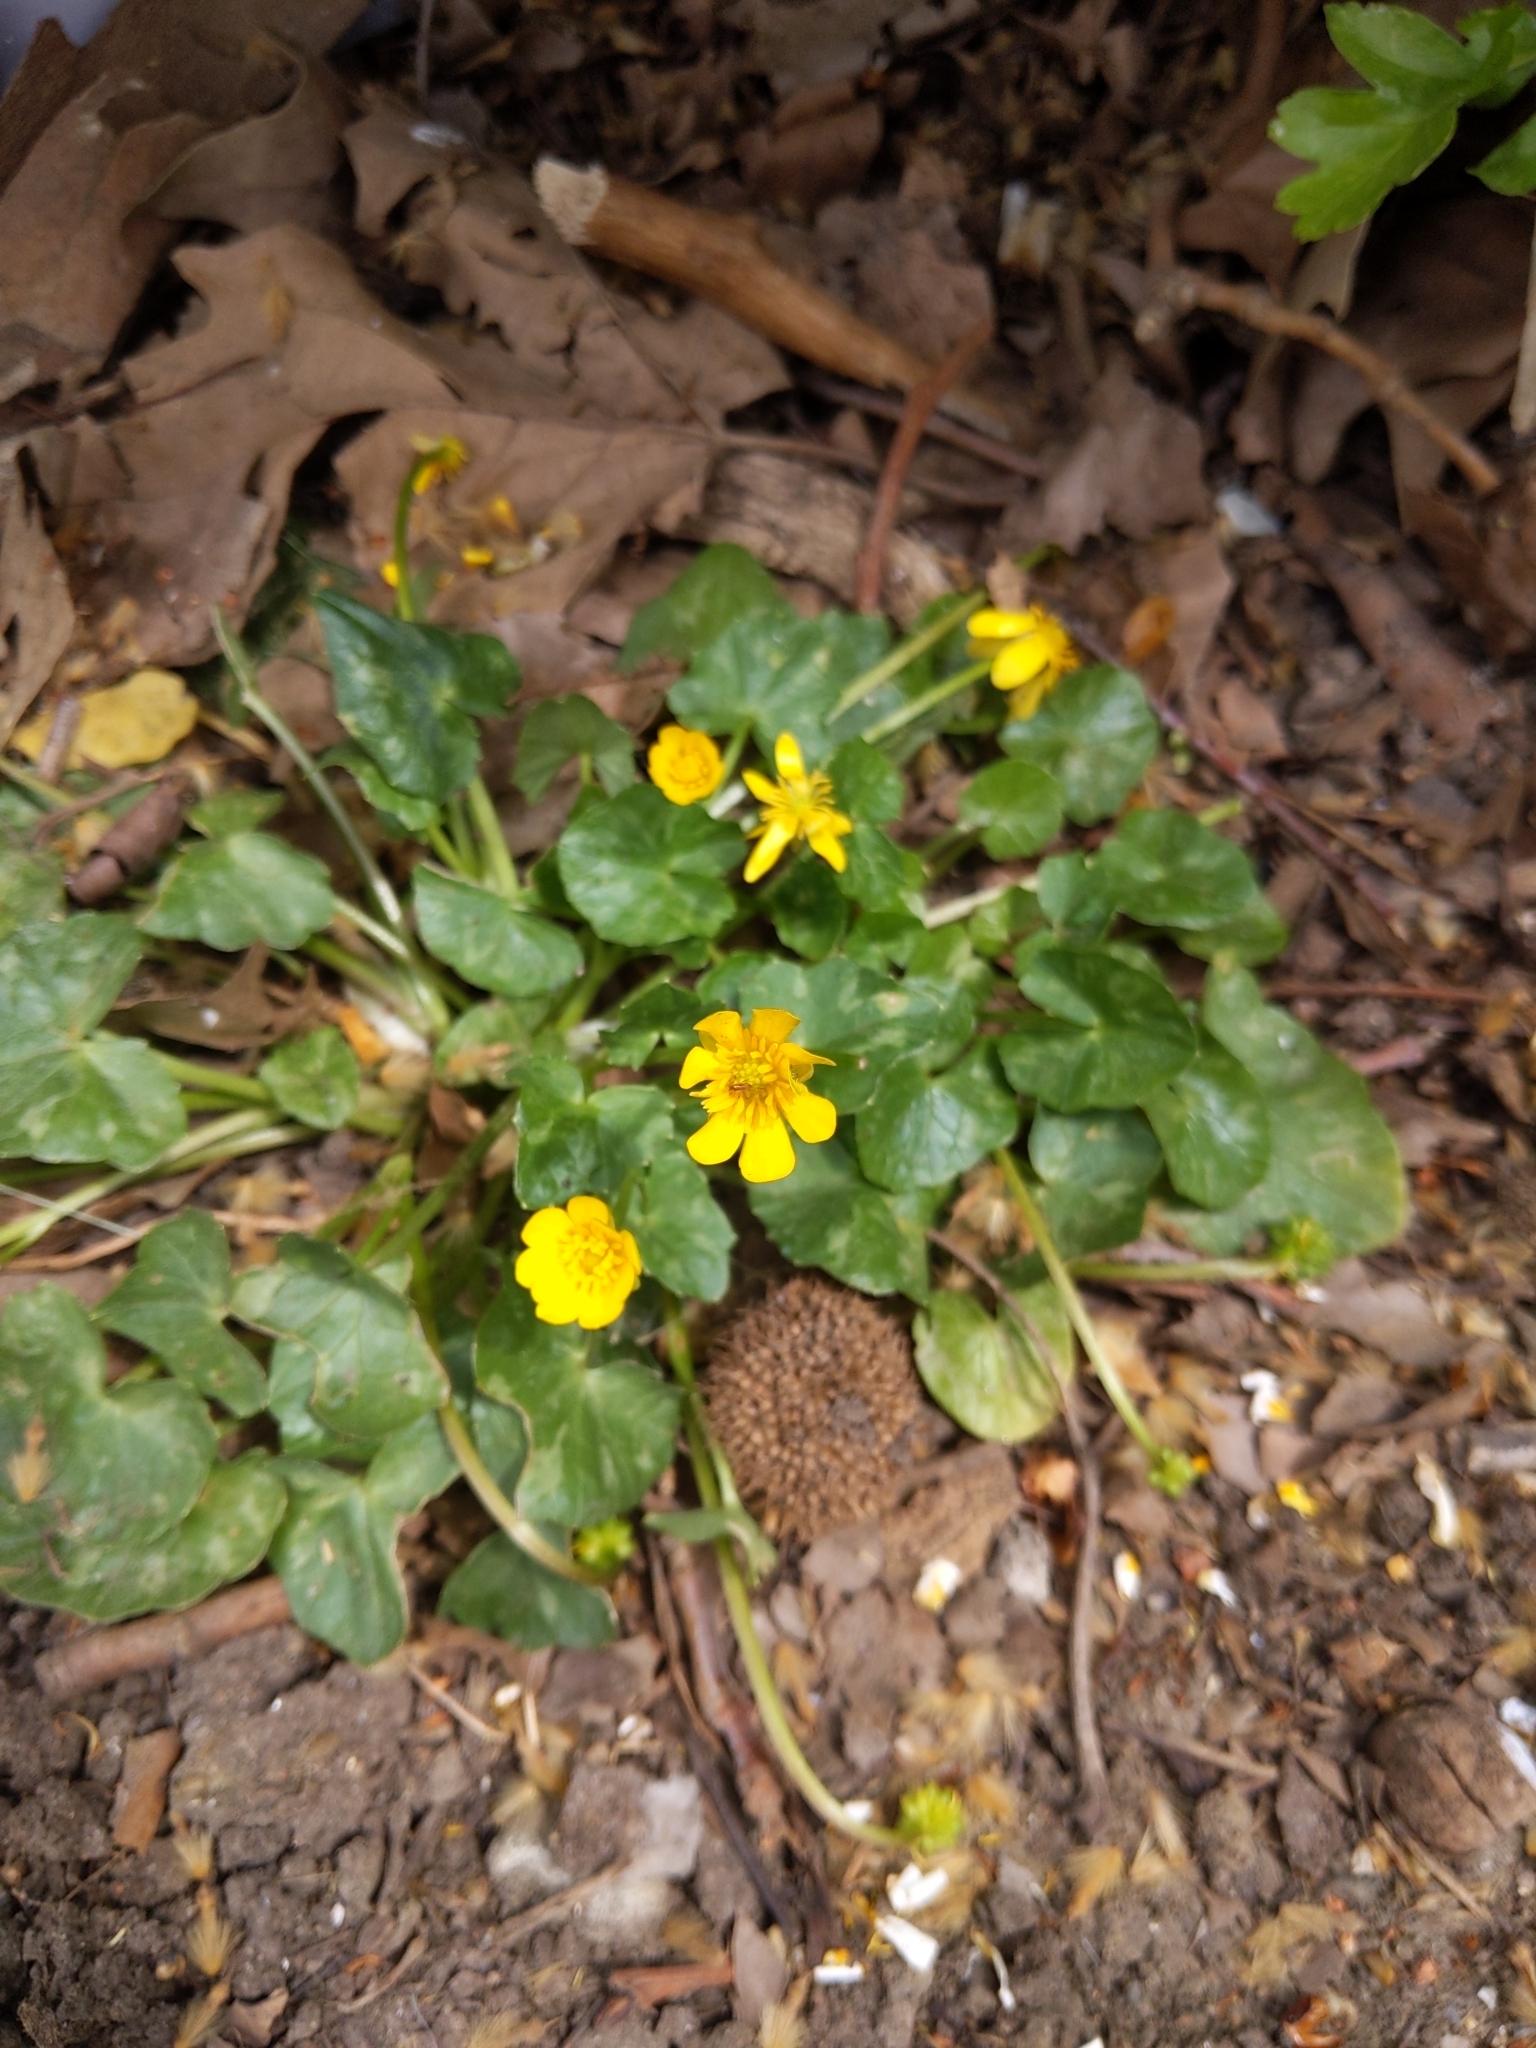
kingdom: Plantae
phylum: Tracheophyta
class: Magnoliopsida
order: Ranunculales
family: Ranunculaceae
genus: Ficaria
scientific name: Ficaria verna
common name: Lesser celandine
